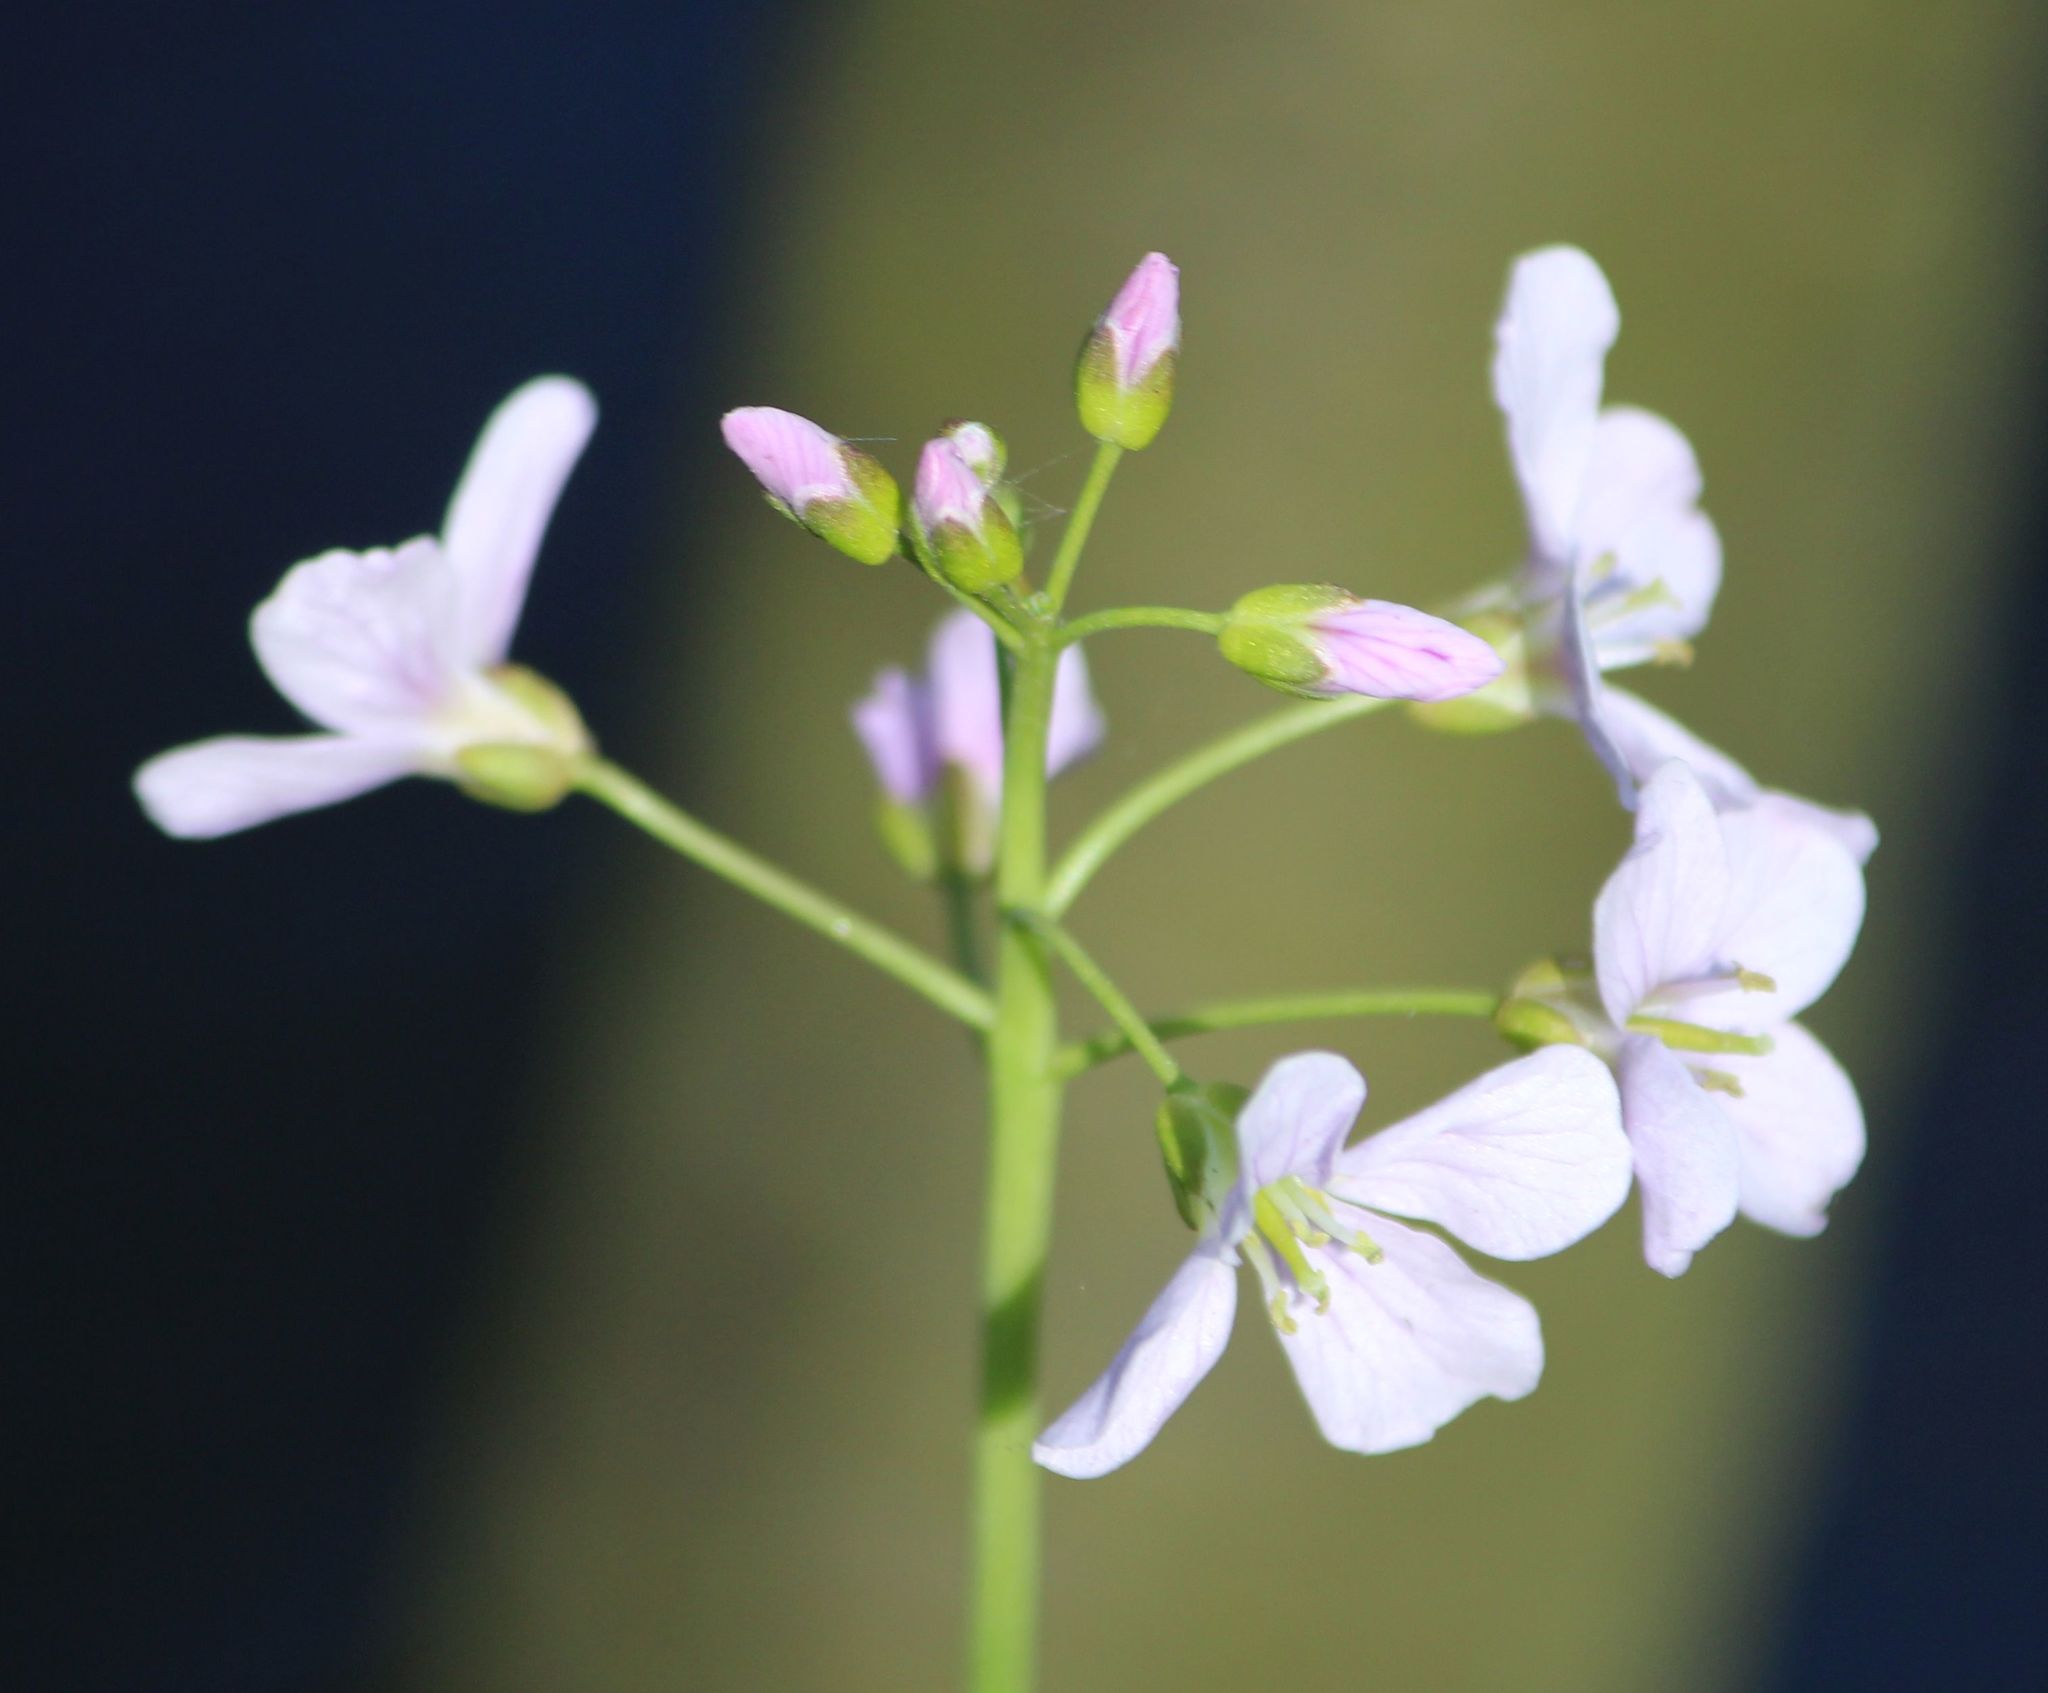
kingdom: Plantae
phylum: Tracheophyta
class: Magnoliopsida
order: Brassicales
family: Brassicaceae
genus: Cardamine
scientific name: Cardamine pratensis
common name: Cuckoo flower
